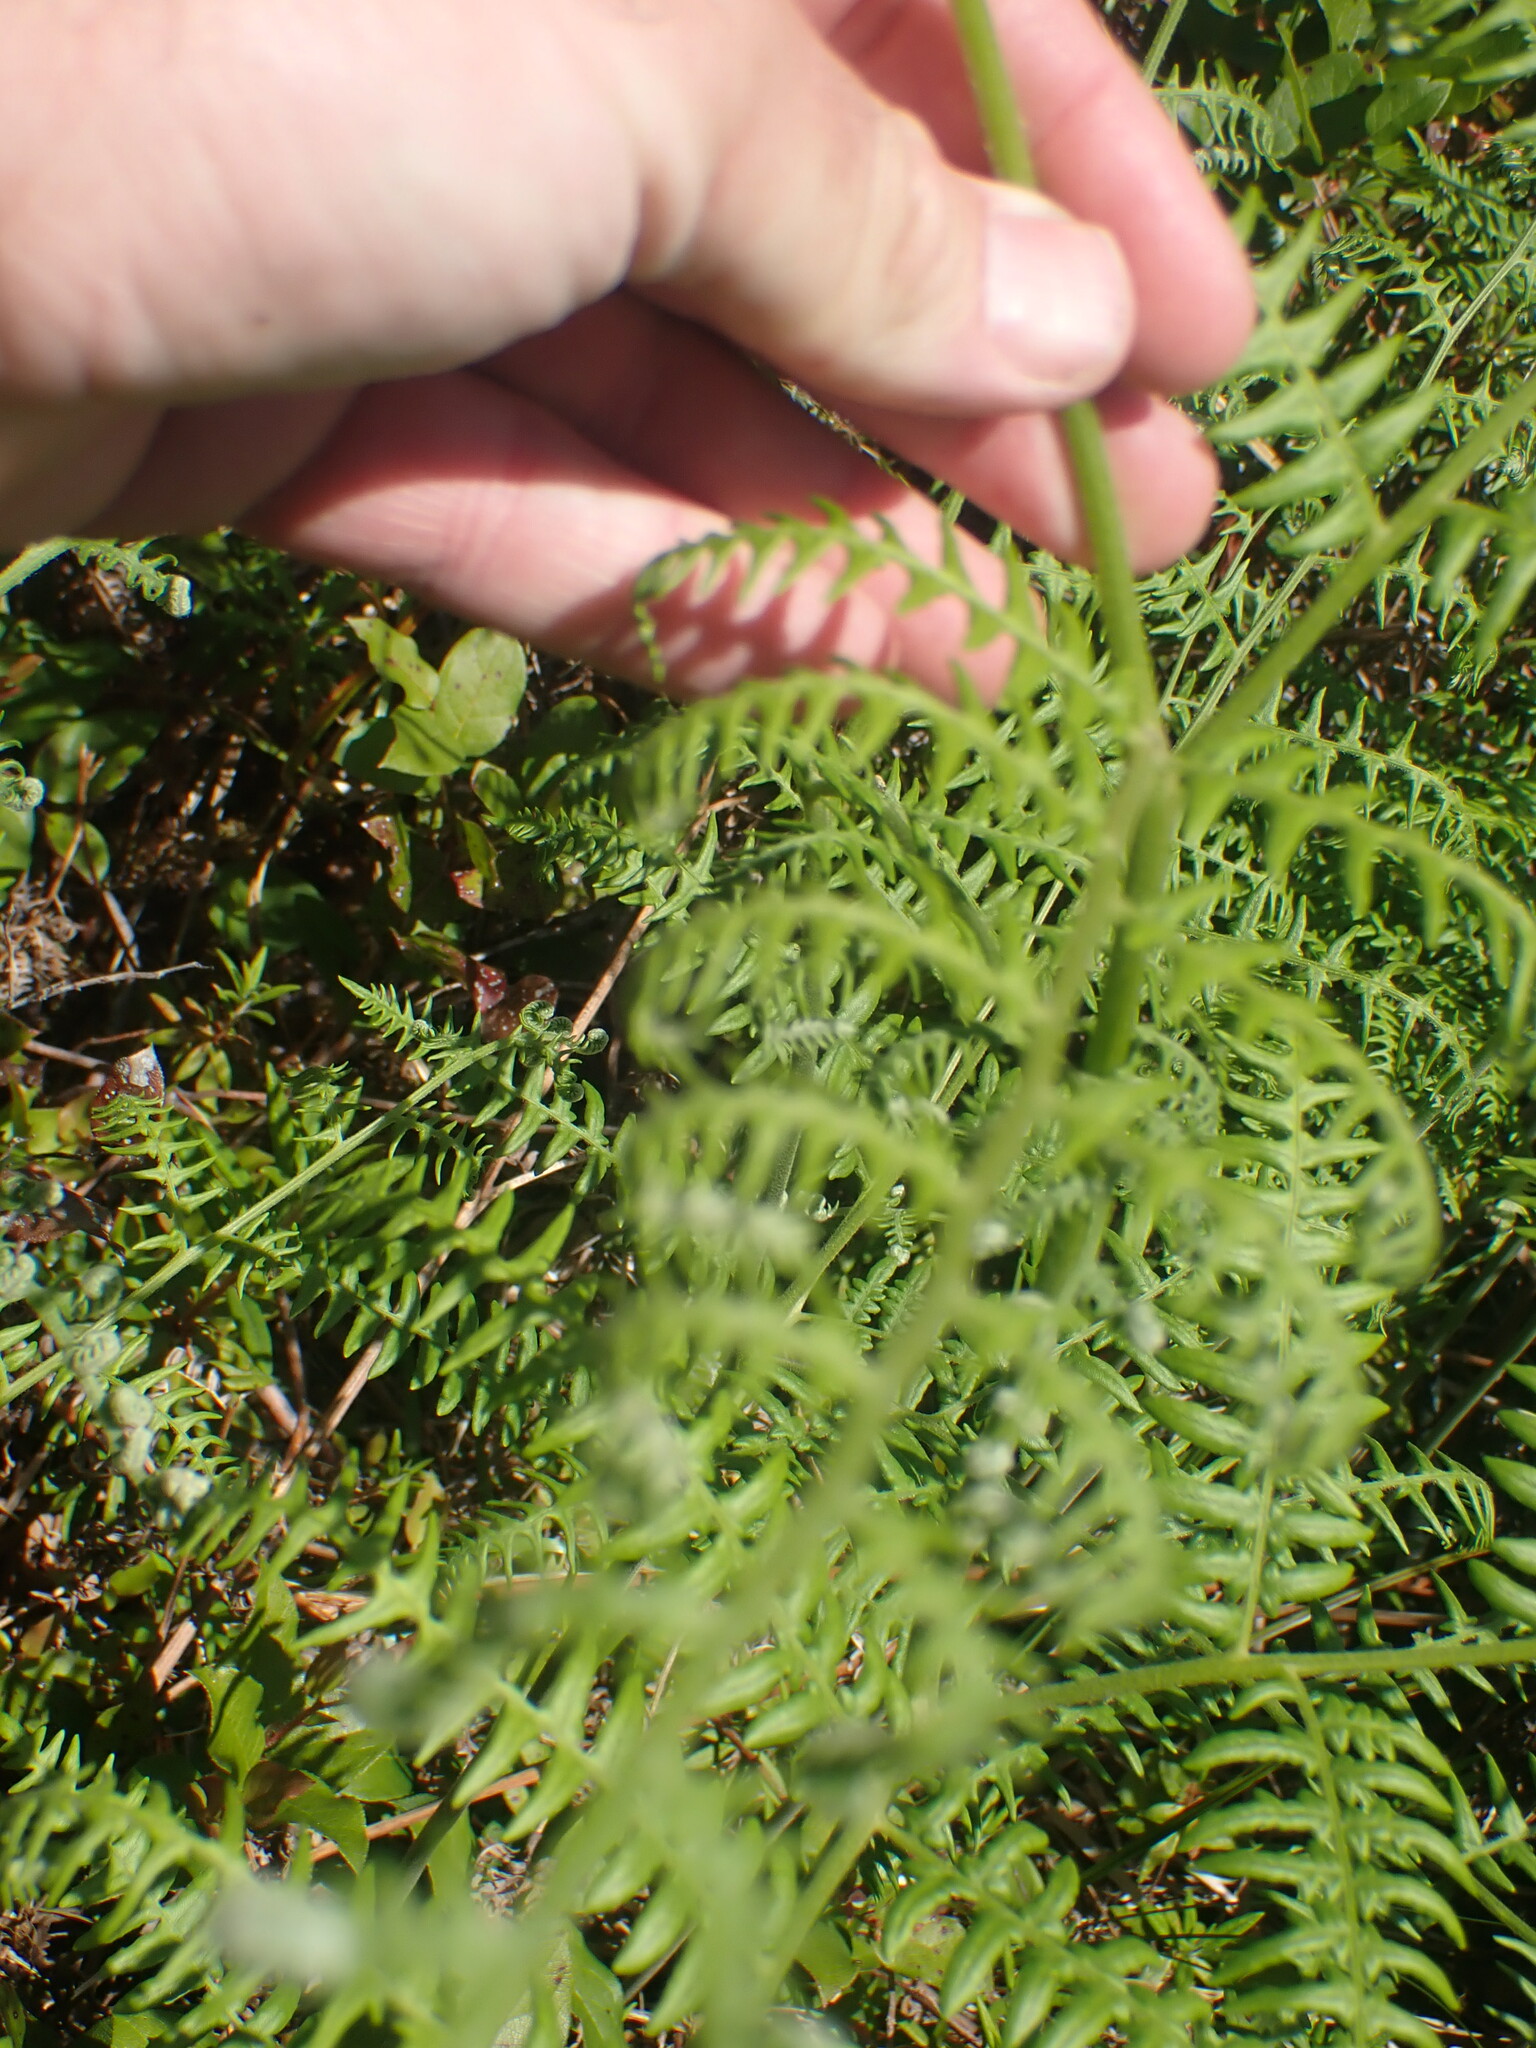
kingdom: Plantae
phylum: Tracheophyta
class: Polypodiopsida
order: Polypodiales
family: Dennstaedtiaceae
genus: Pteridium
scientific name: Pteridium aquilinum
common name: Bracken
